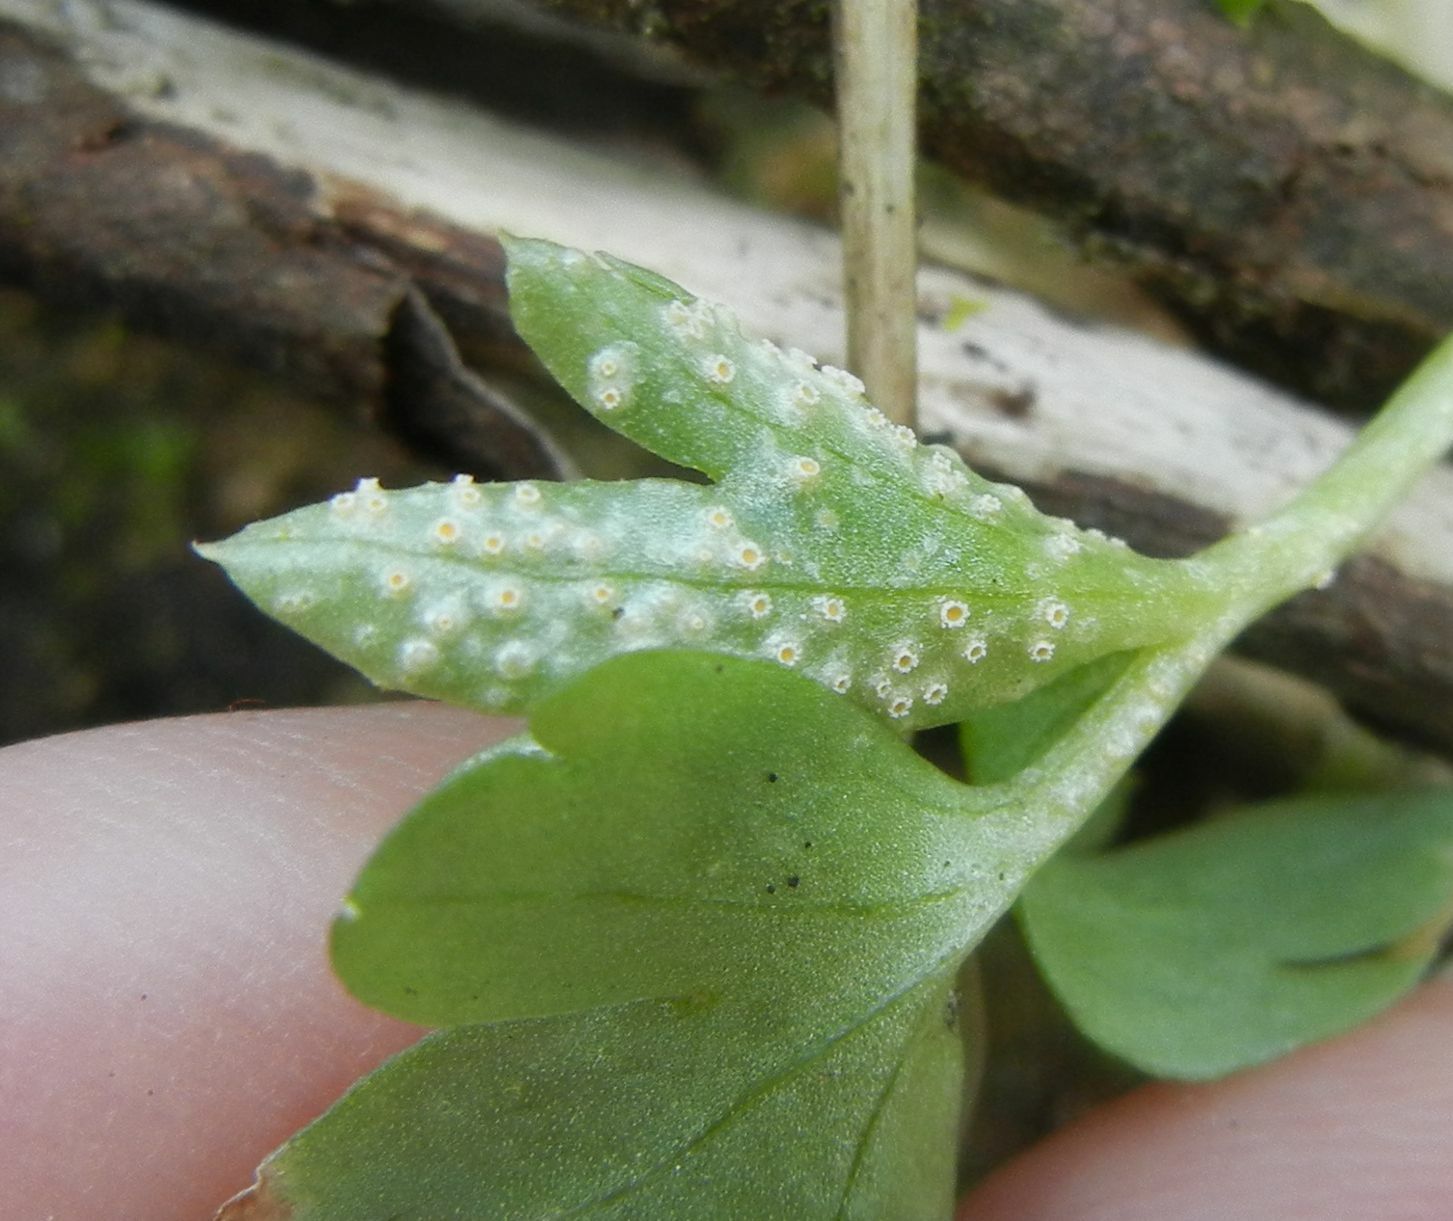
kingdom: Fungi
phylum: Basidiomycota
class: Pucciniomycetes
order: Pucciniales
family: Pucciniaceae
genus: Puccinia
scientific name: Puccinia albescens
